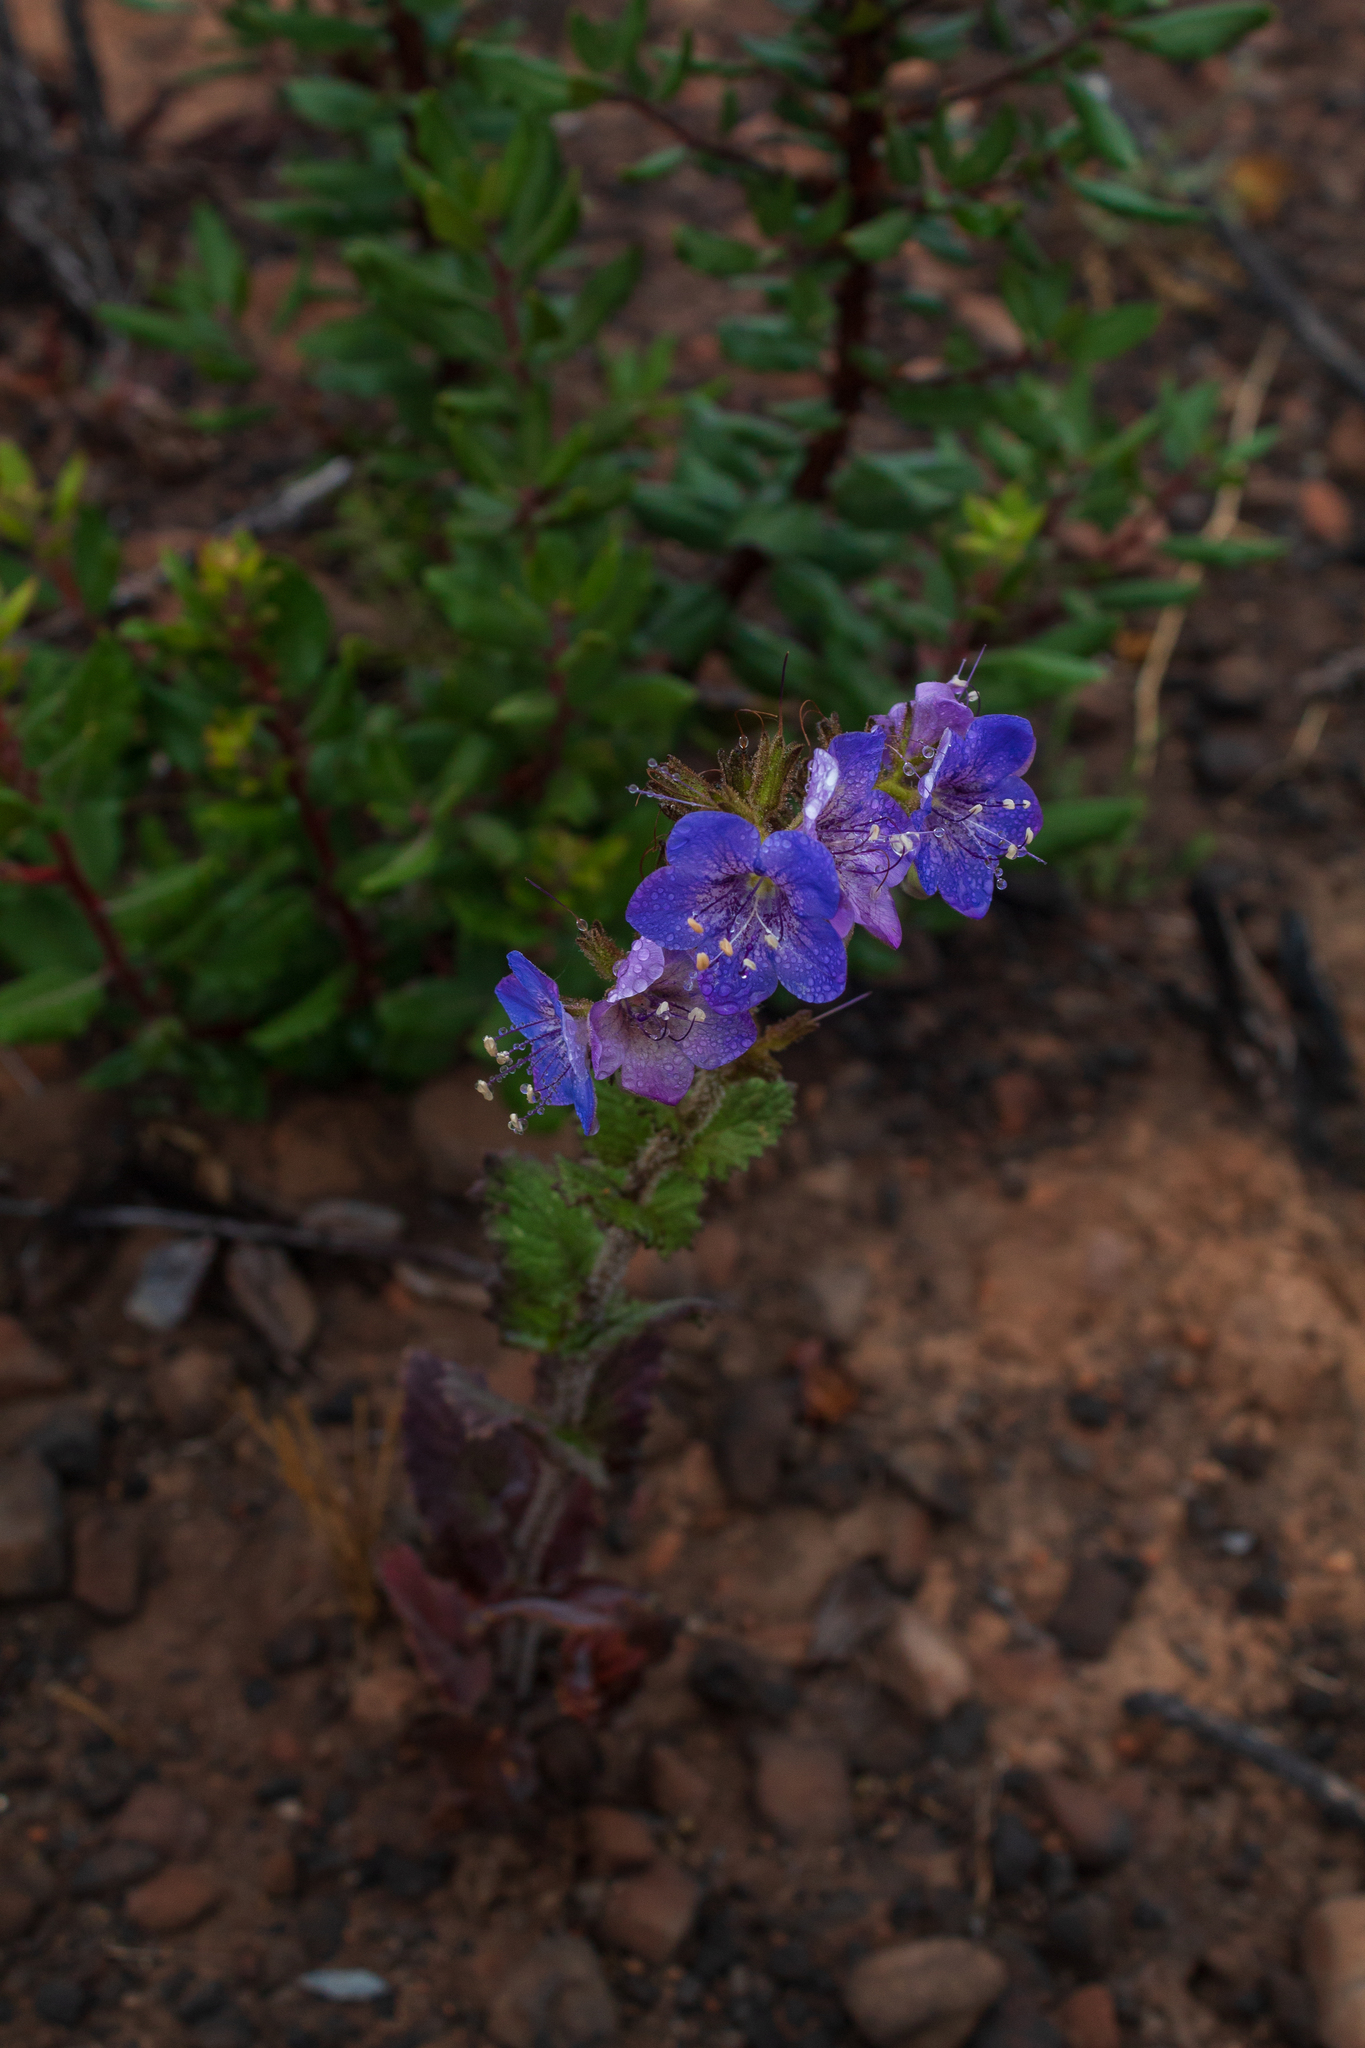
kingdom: Plantae
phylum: Tracheophyta
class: Magnoliopsida
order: Boraginales
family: Hydrophyllaceae
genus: Phacelia
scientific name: Phacelia grandiflora
